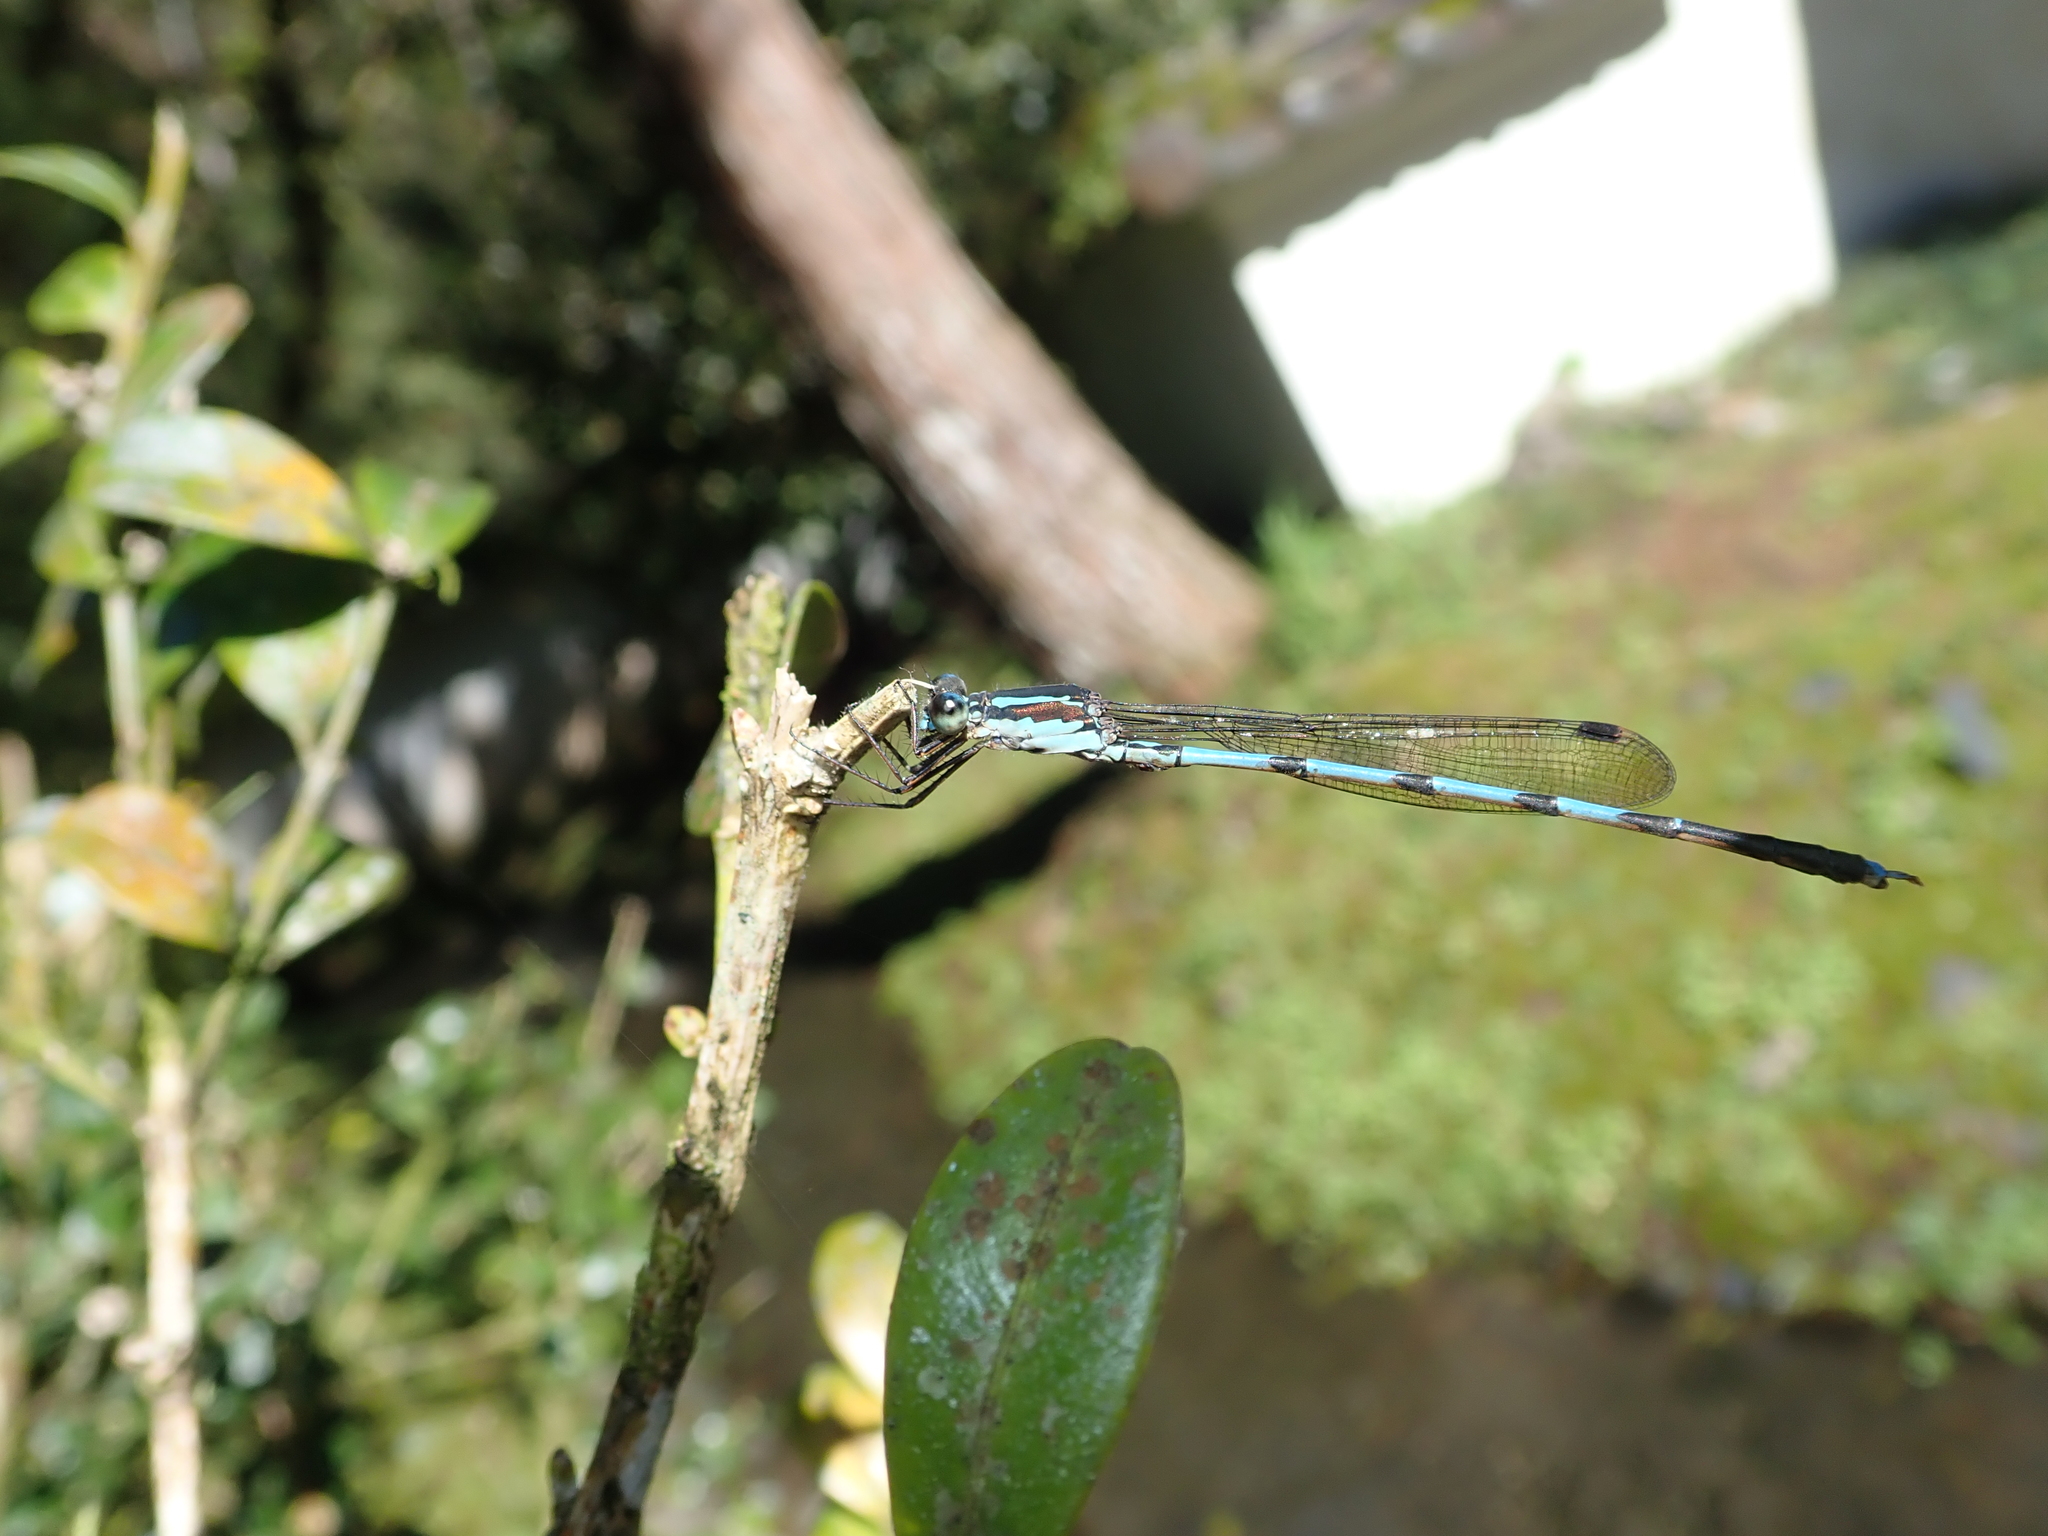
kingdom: Animalia
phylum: Arthropoda
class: Insecta
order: Odonata
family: Lestidae
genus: Indolestes
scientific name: Indolestes cyaneus
